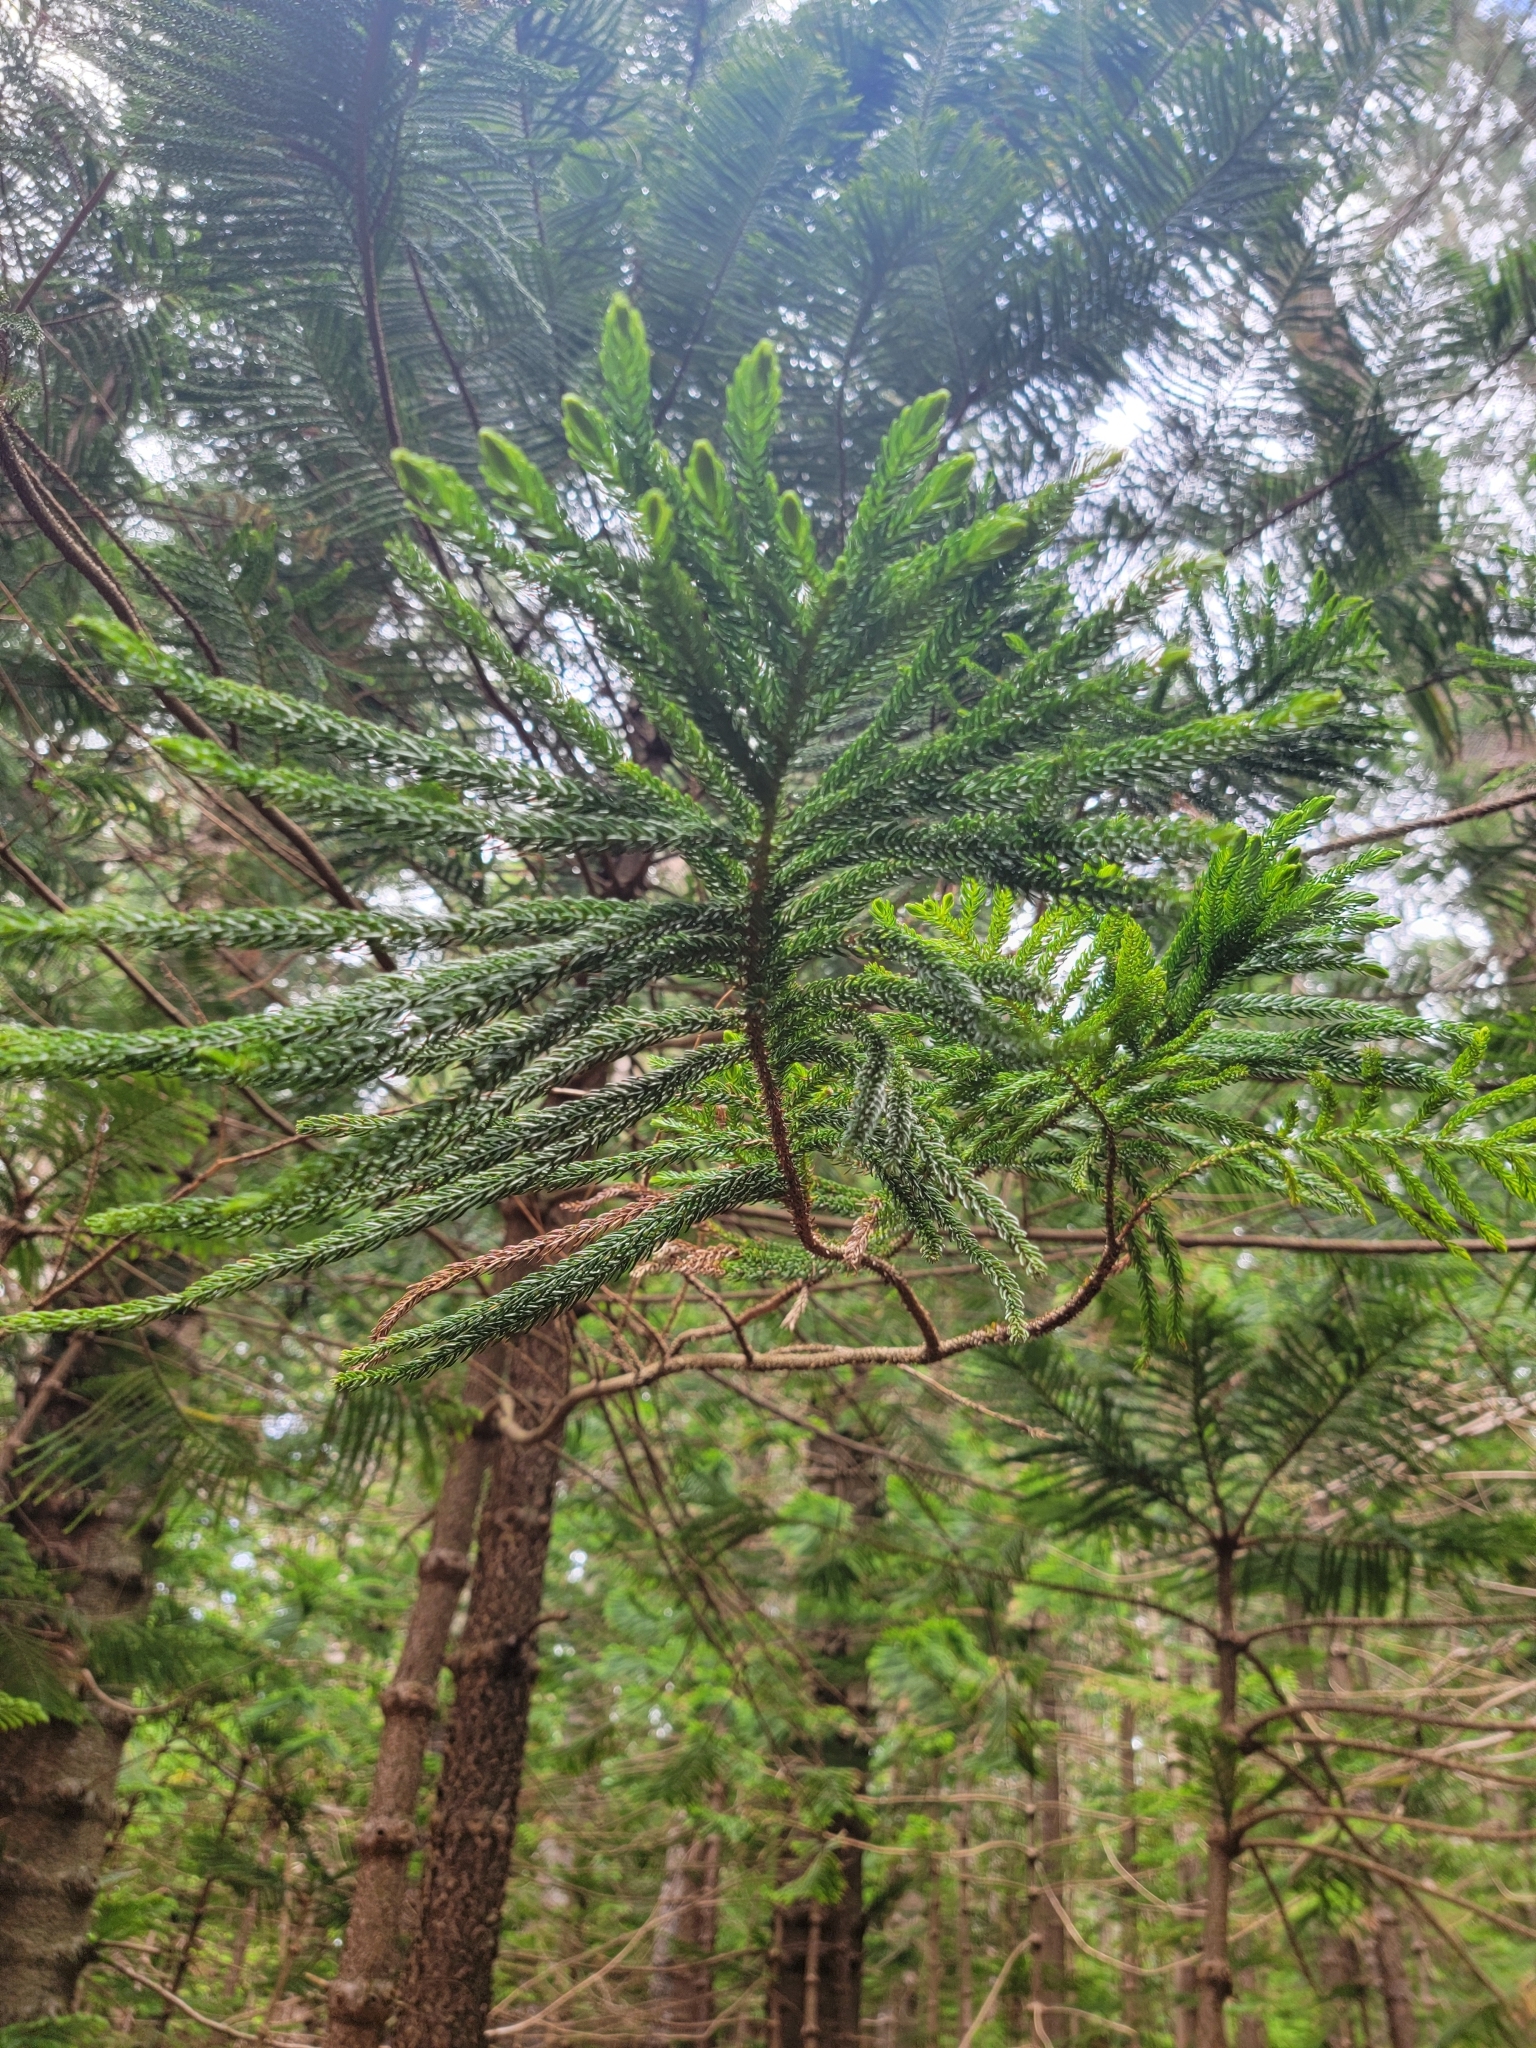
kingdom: Plantae
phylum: Tracheophyta
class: Pinopsida
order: Pinales
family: Araucariaceae
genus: Araucaria
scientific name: Araucaria columnaris
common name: Coral reef araucaria
